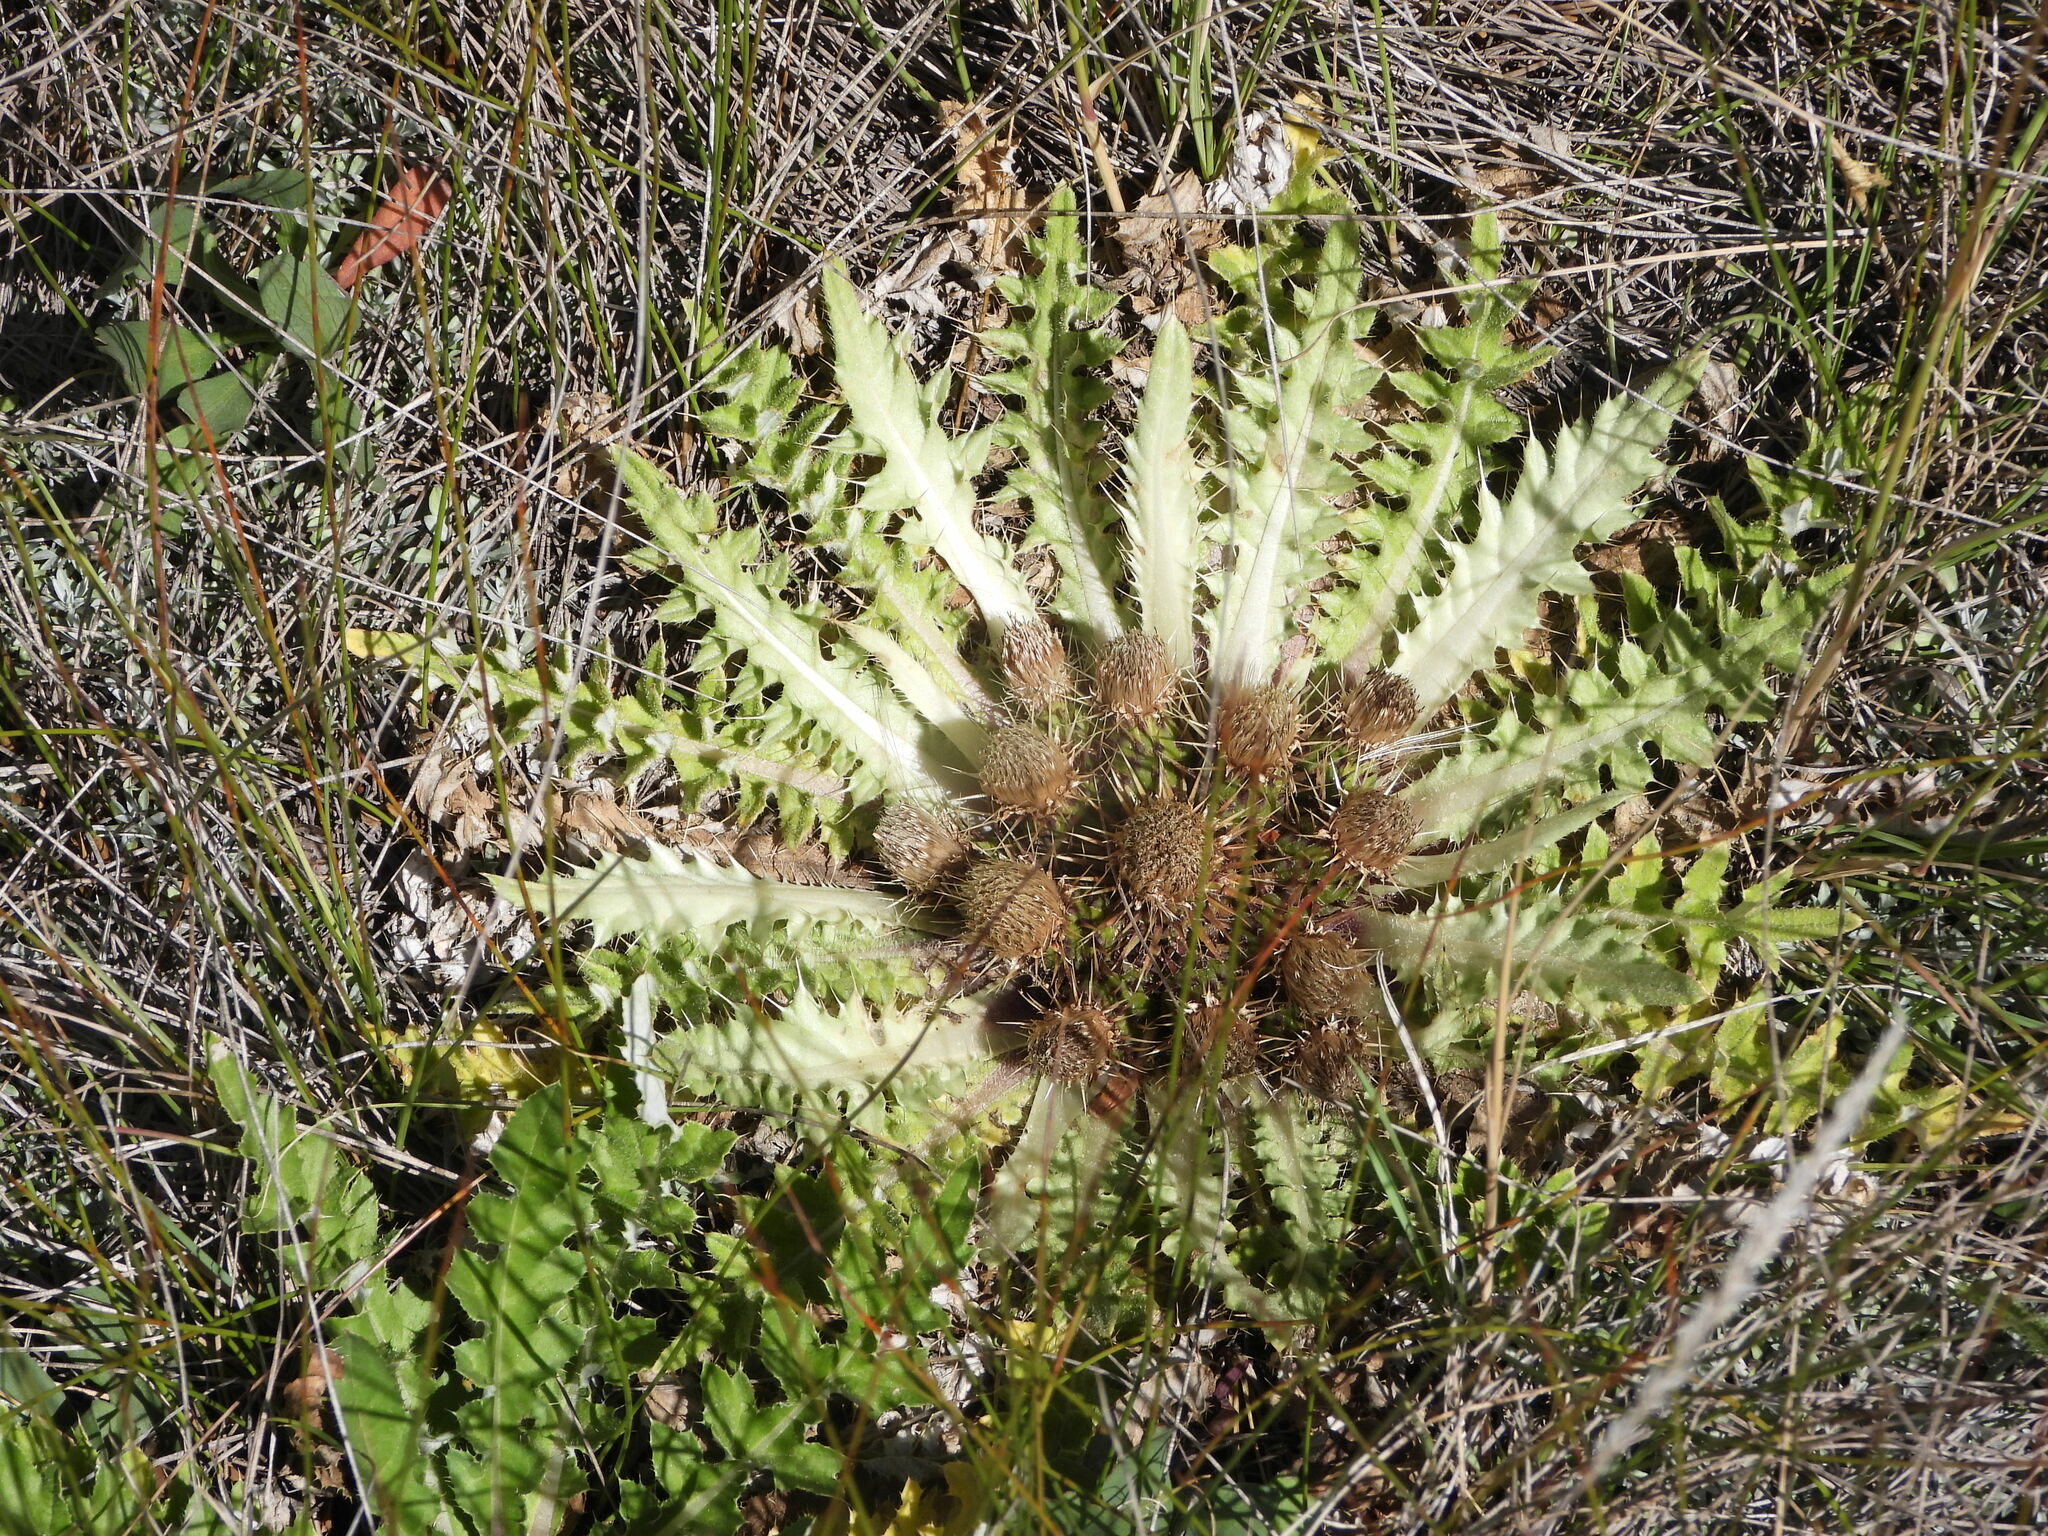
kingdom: Plantae
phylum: Tracheophyta
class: Magnoliopsida
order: Asterales
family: Asteraceae
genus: Cirsium
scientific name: Cirsium tioganum
